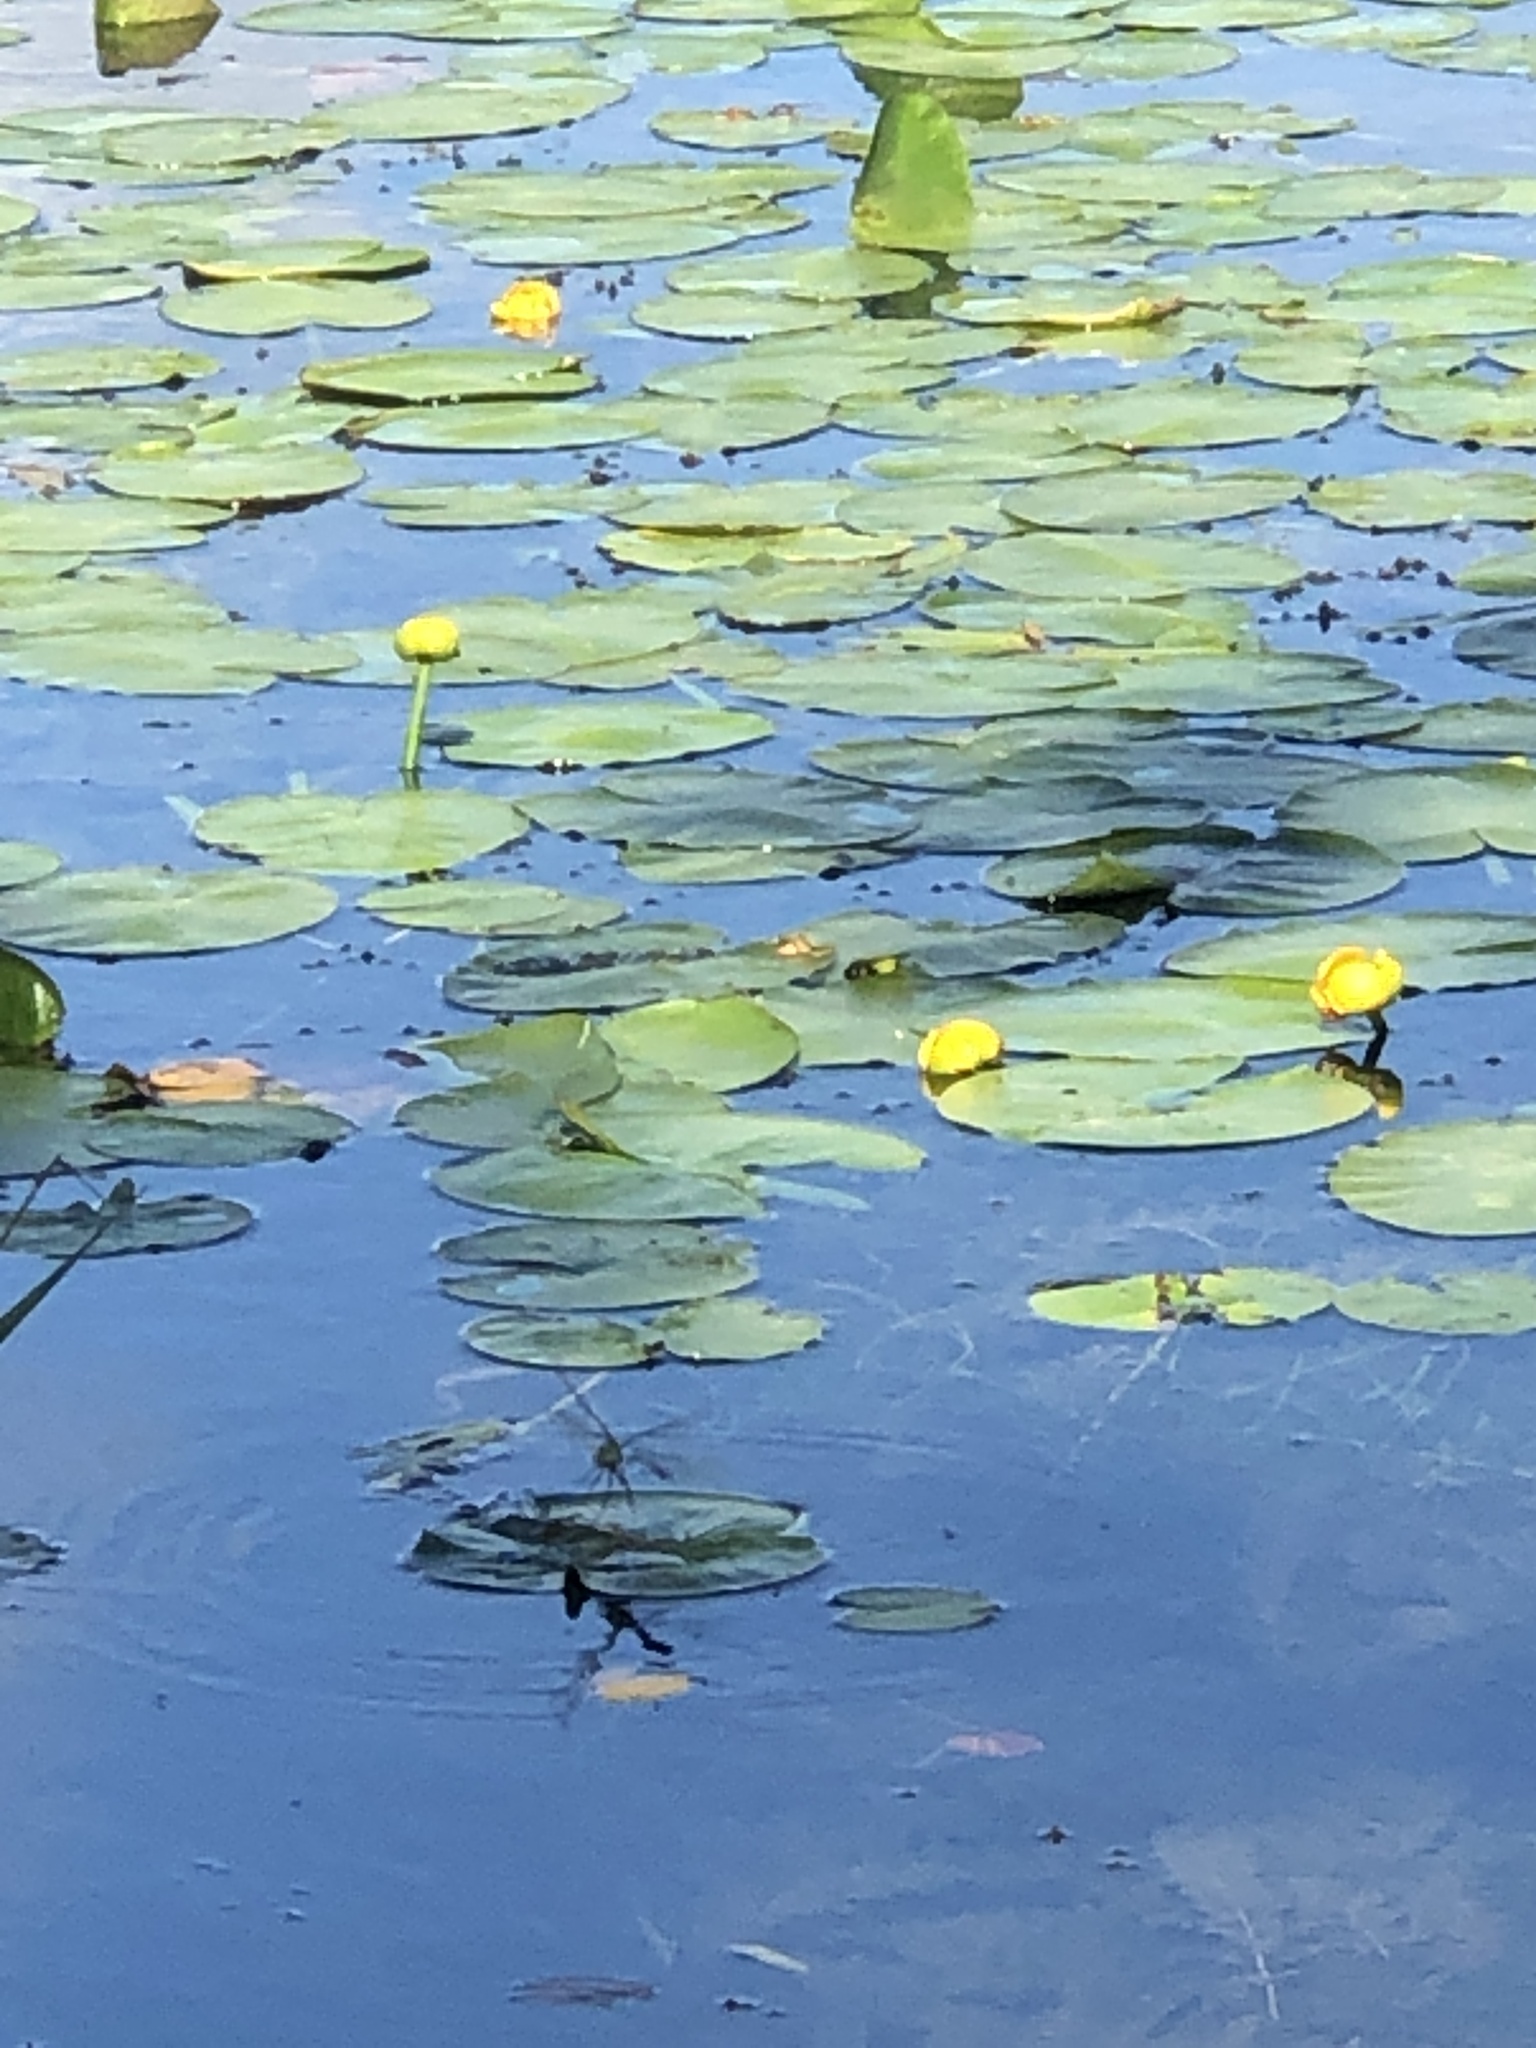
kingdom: Plantae
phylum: Tracheophyta
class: Magnoliopsida
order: Nymphaeales
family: Nymphaeaceae
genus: Nuphar
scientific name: Nuphar variegata
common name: Beaver-root
